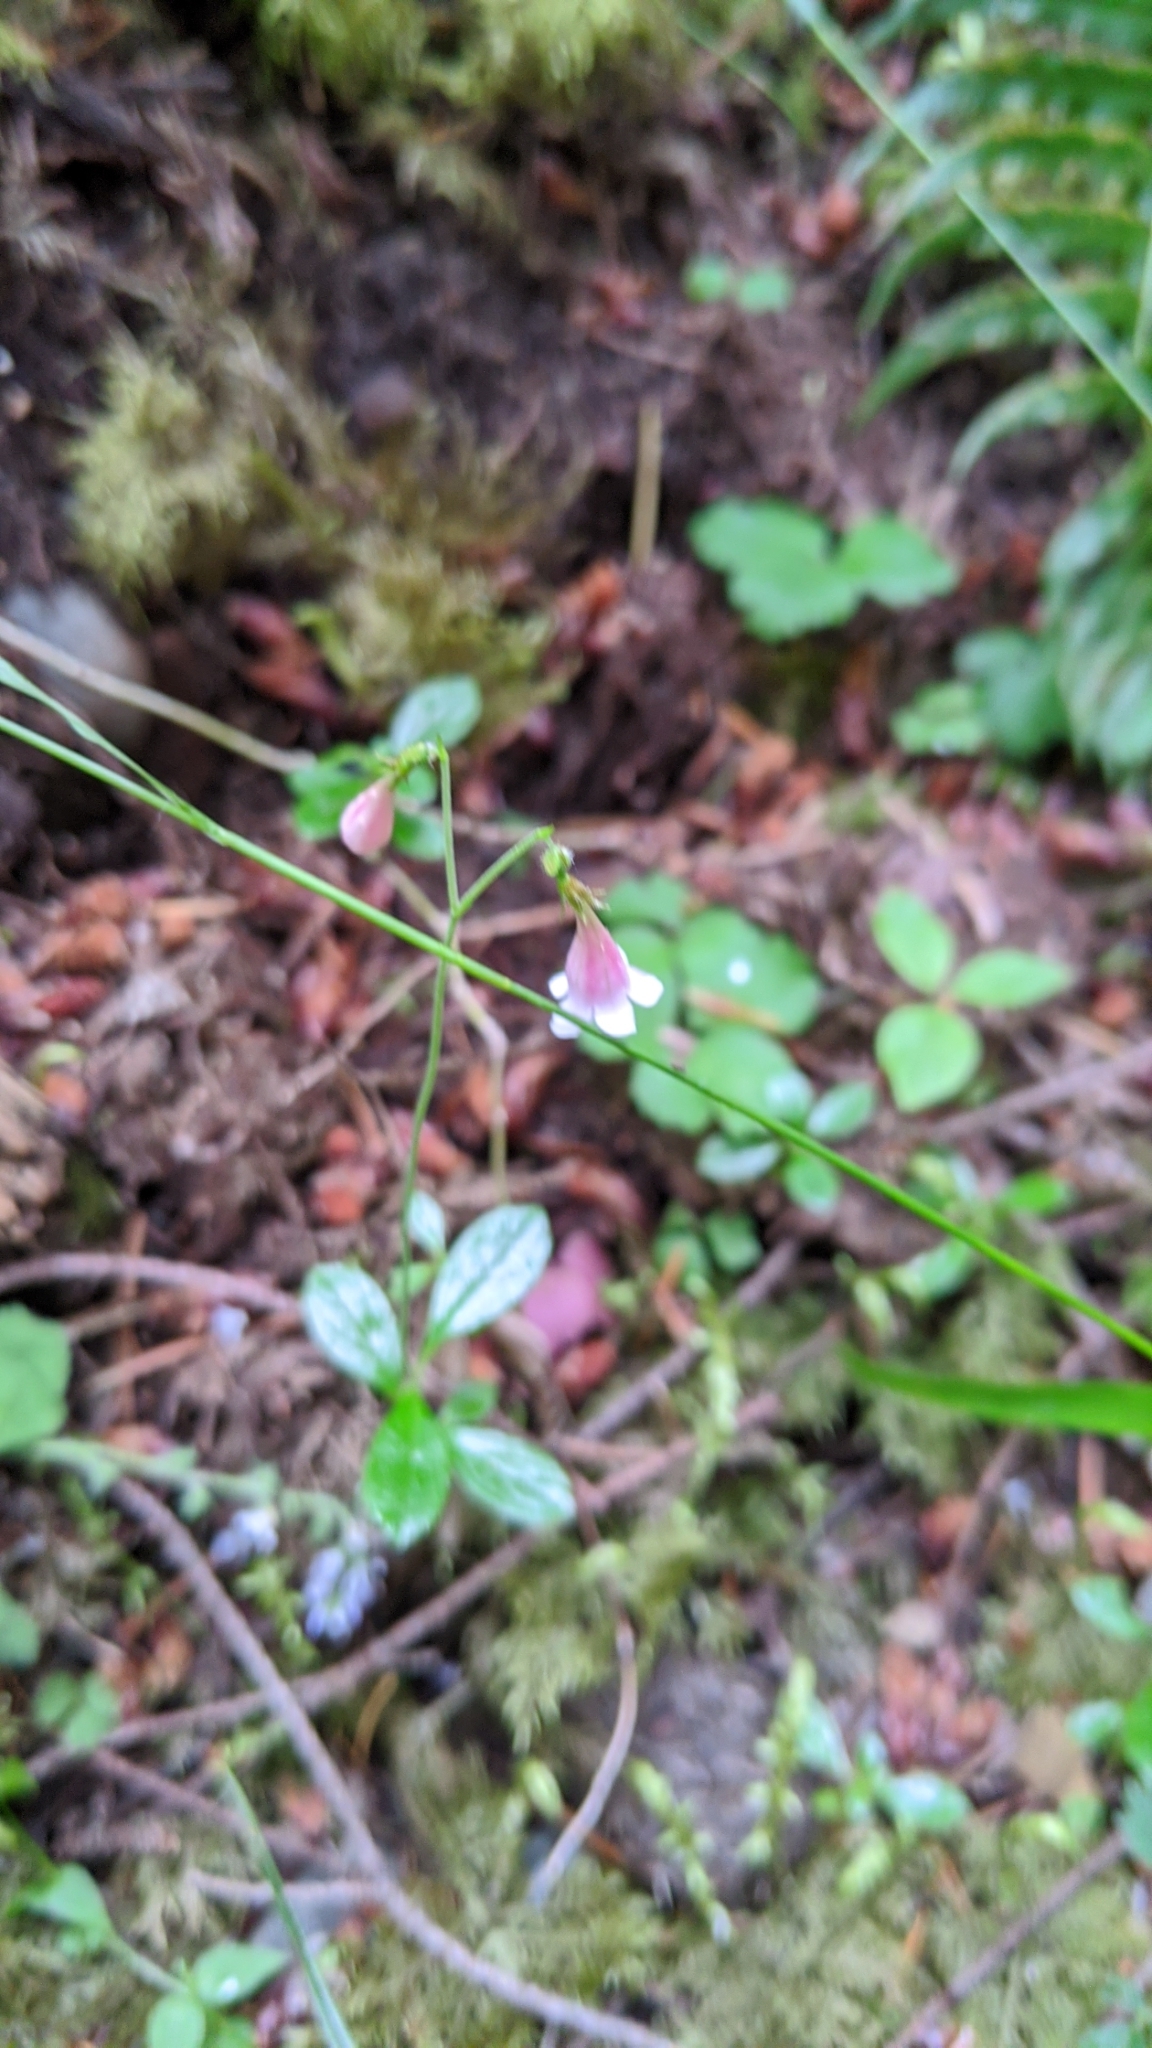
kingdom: Plantae
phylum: Tracheophyta
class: Magnoliopsida
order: Dipsacales
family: Caprifoliaceae
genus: Linnaea
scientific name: Linnaea borealis
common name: Twinflower
